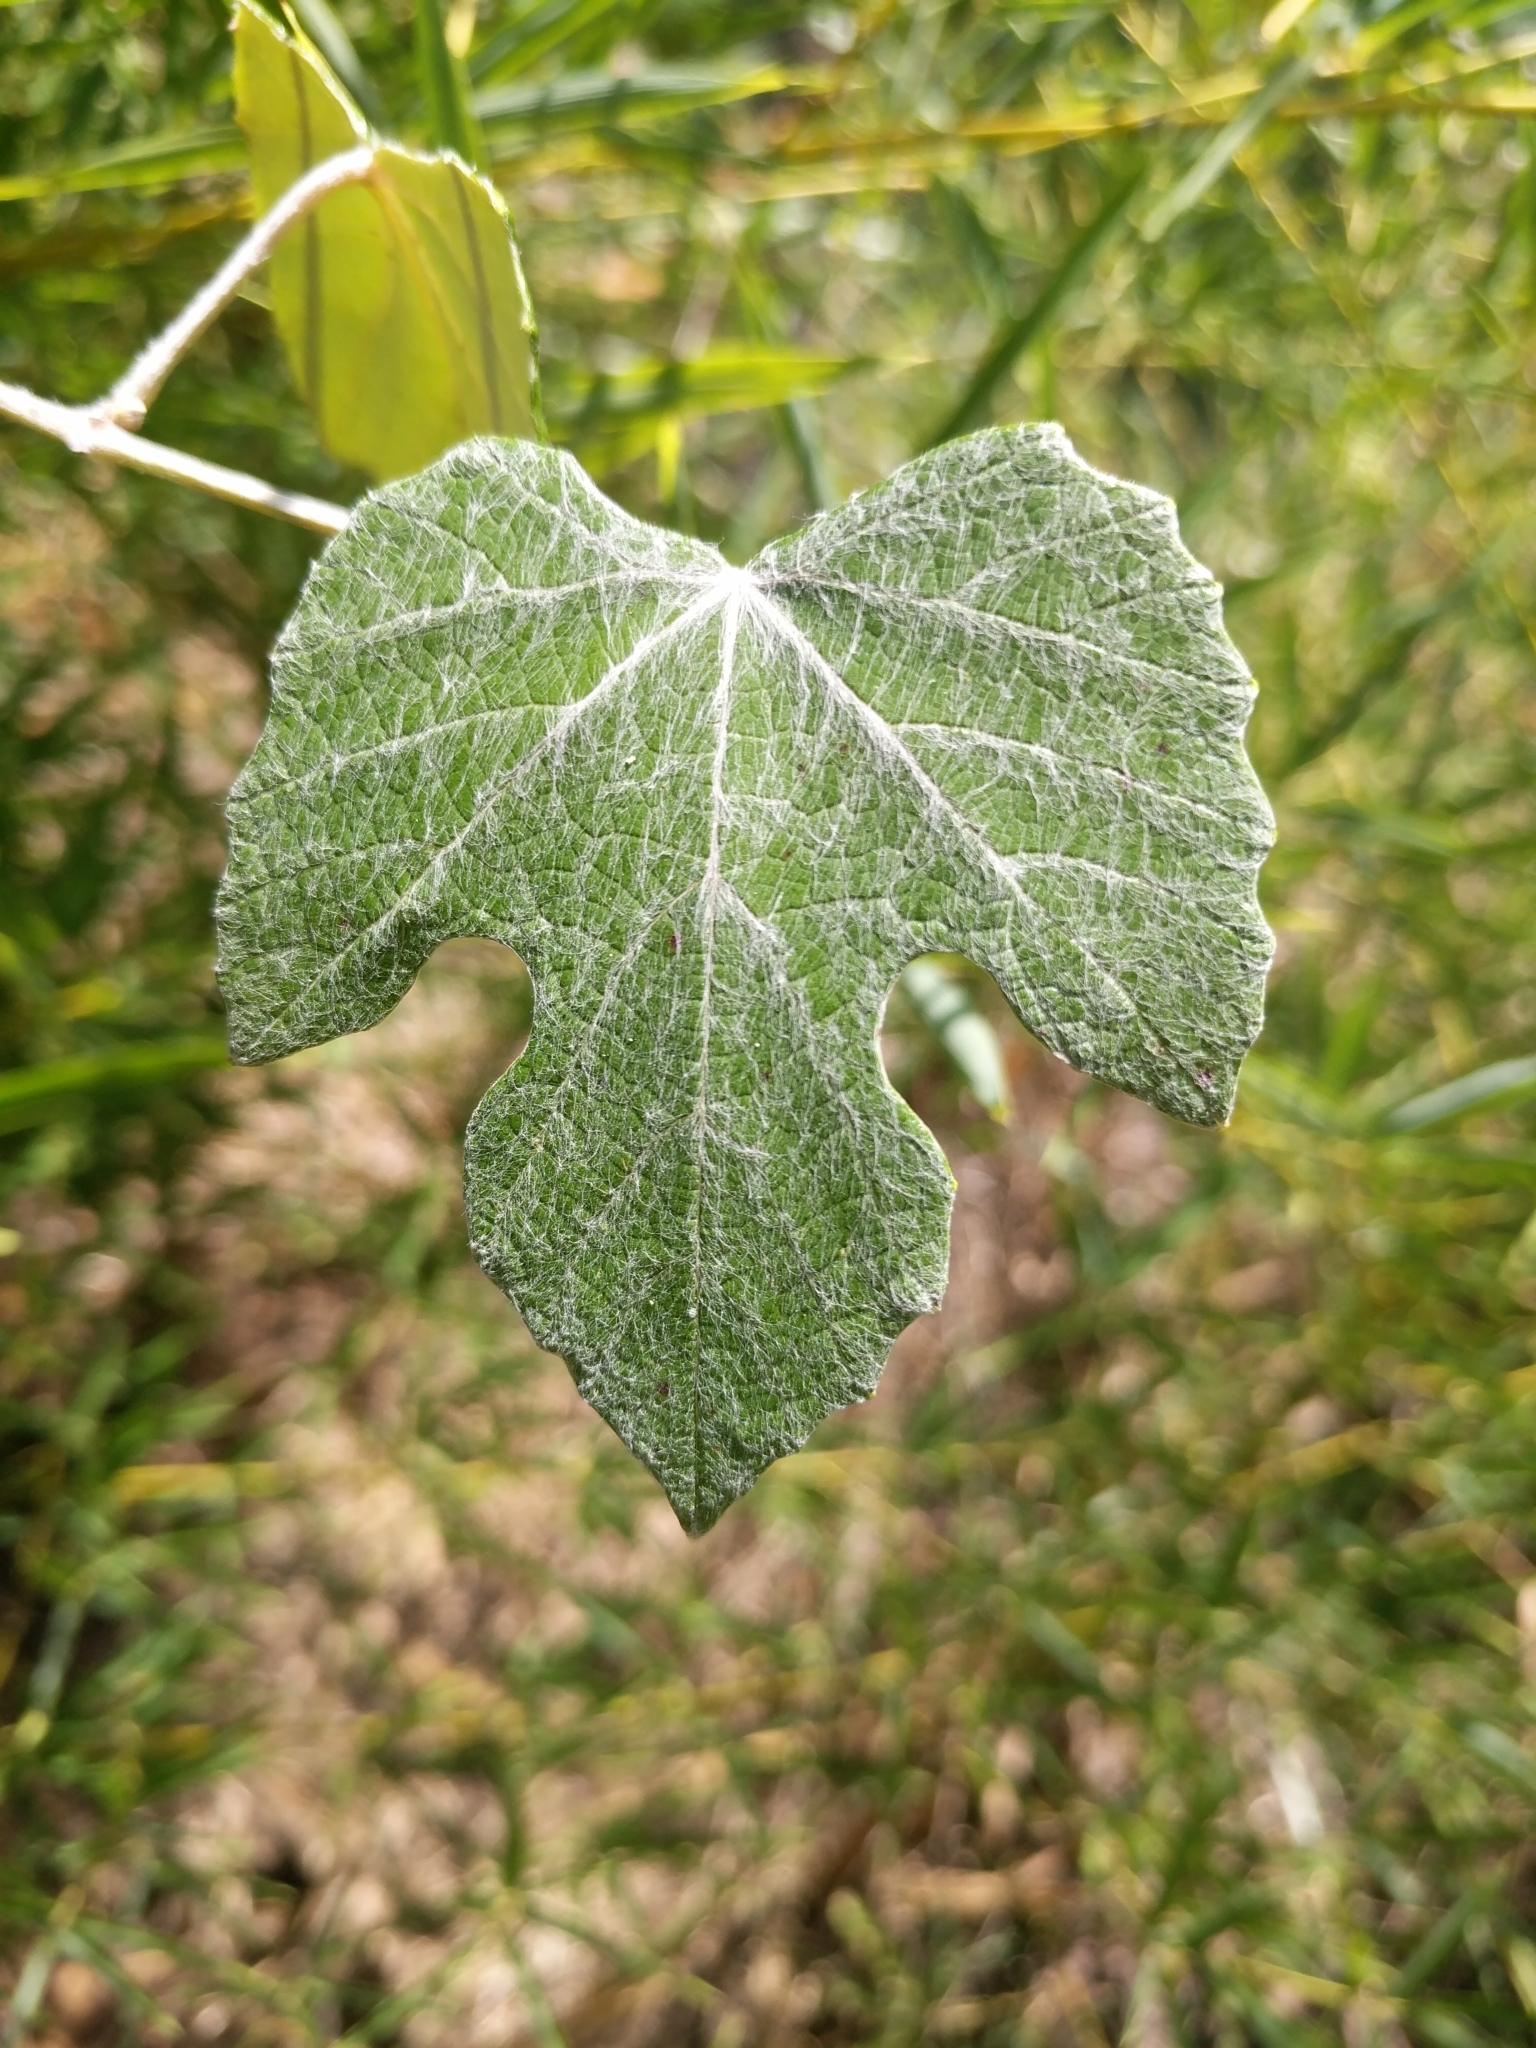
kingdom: Plantae
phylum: Tracheophyta
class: Magnoliopsida
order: Vitales
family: Vitaceae
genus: Vitis
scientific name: Vitis mustangensis
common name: Mustang grape
